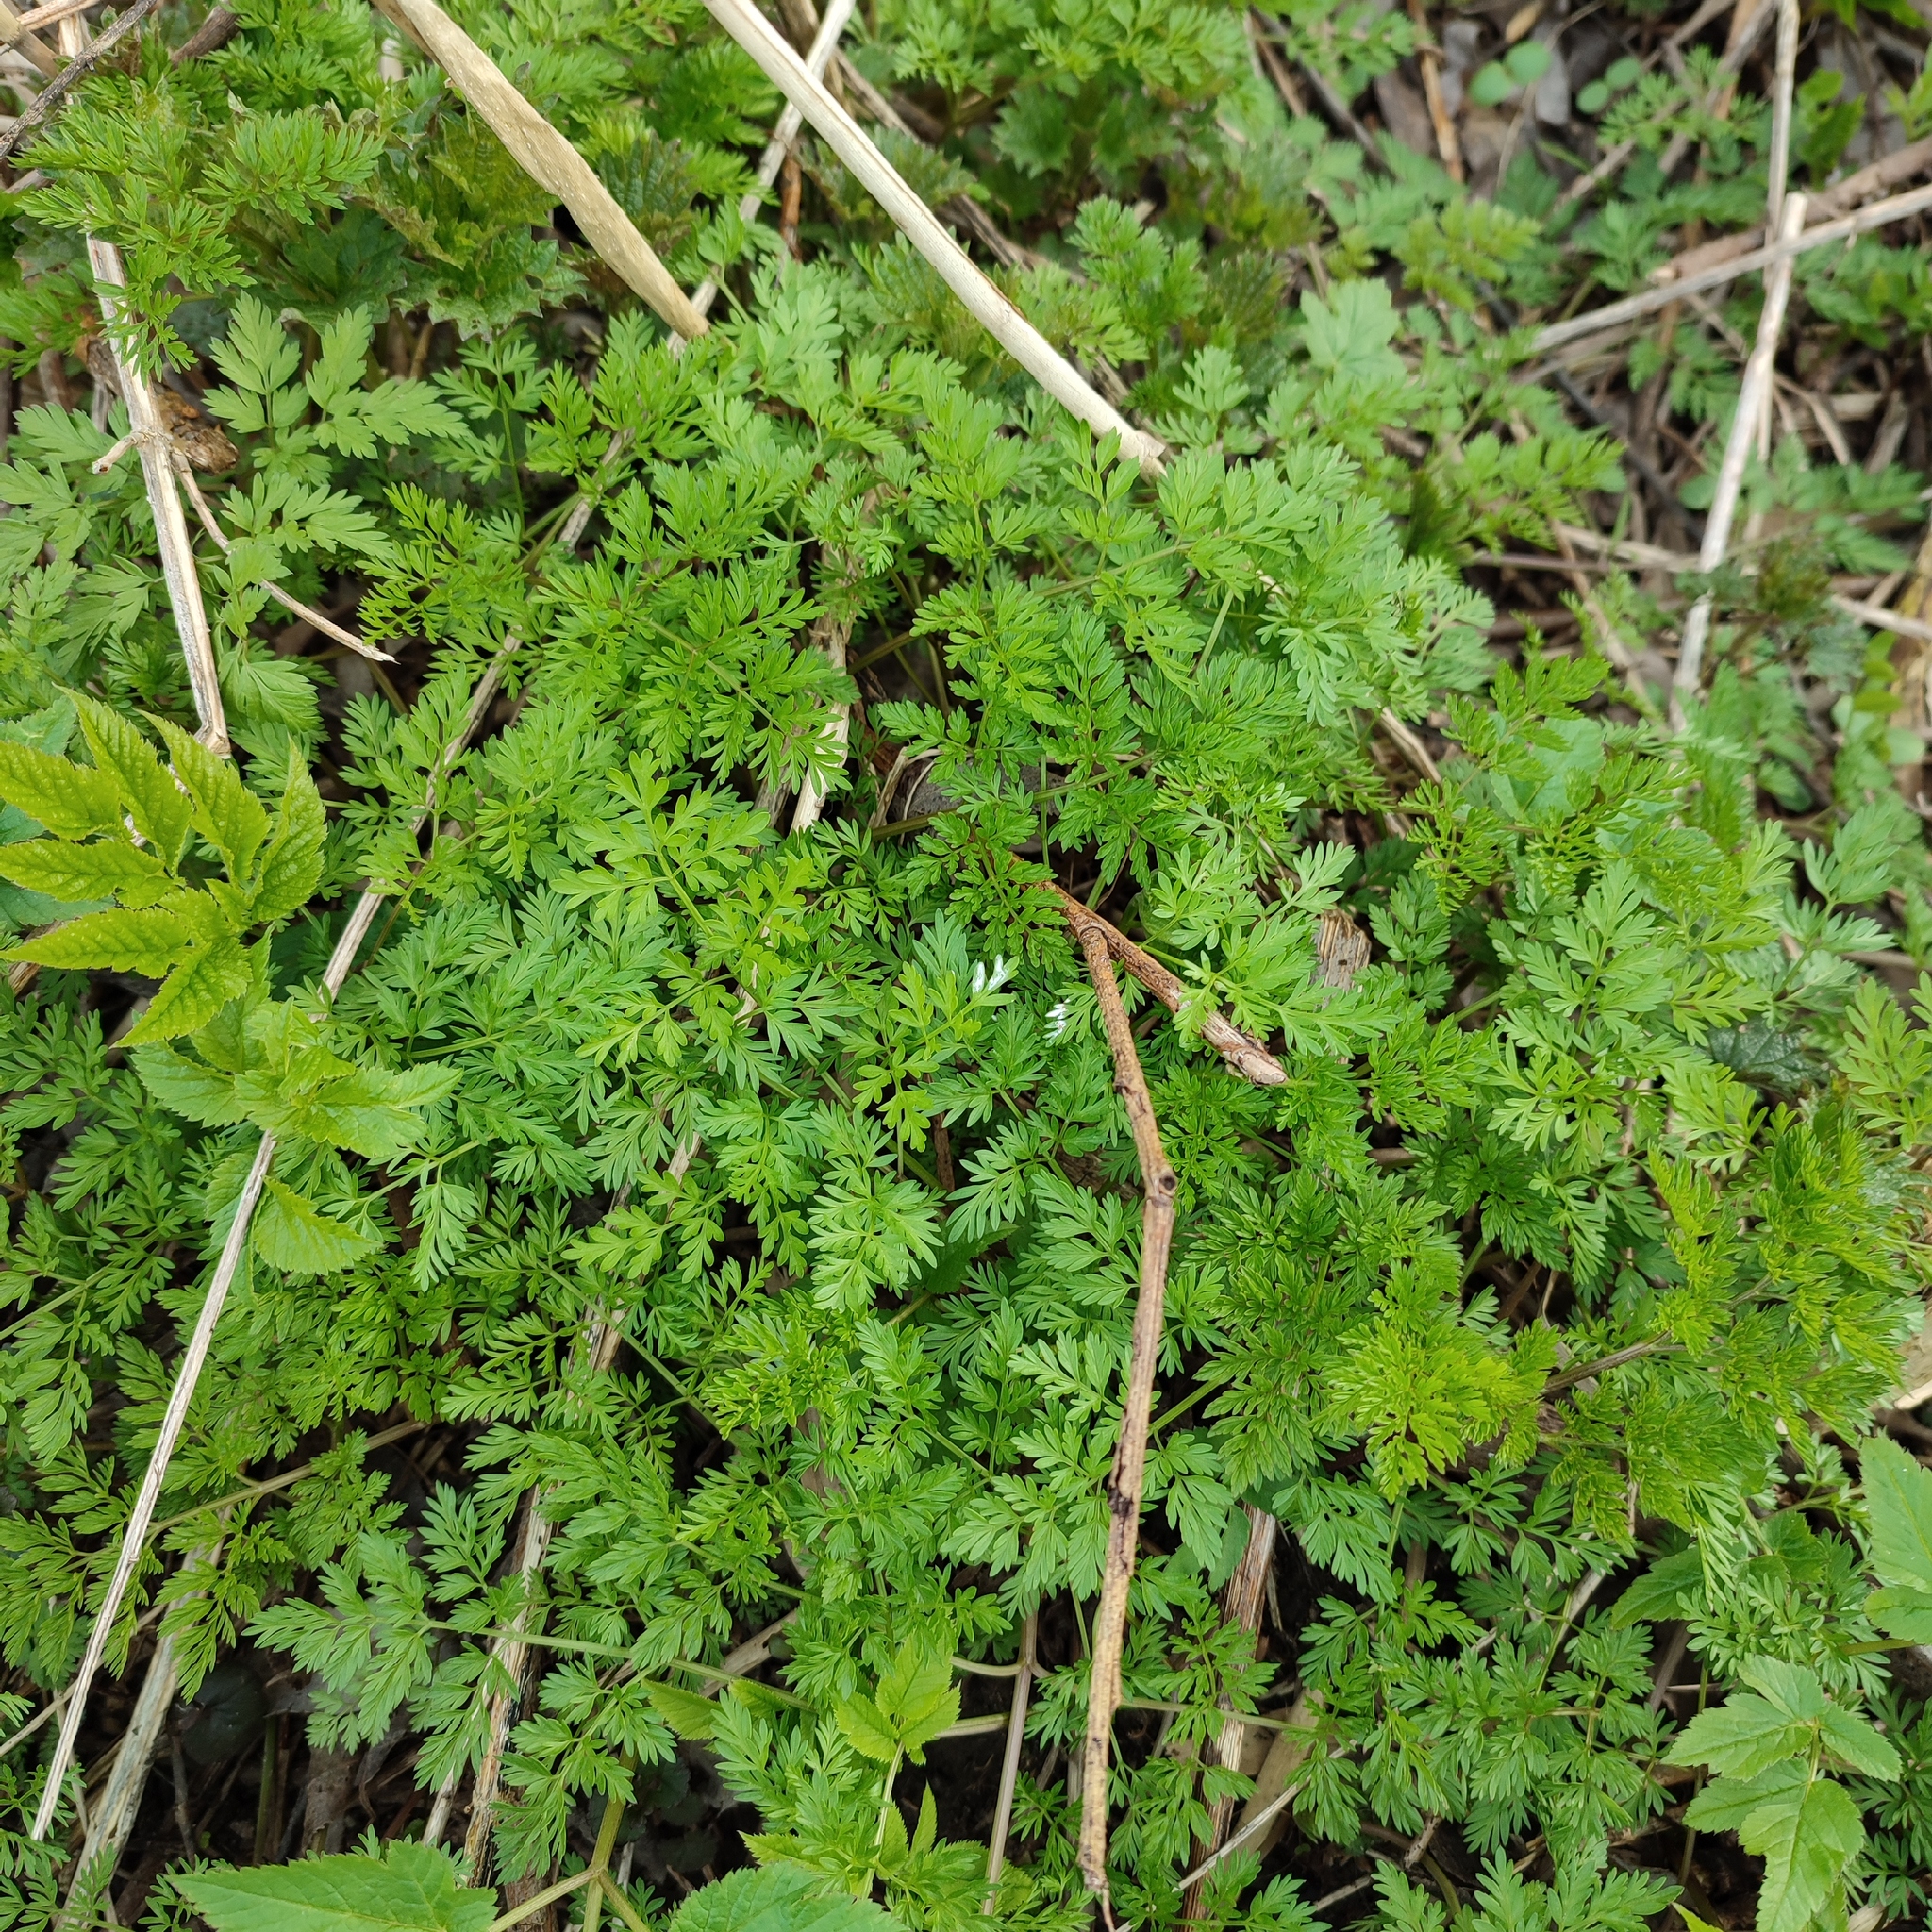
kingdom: Plantae
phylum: Tracheophyta
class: Magnoliopsida
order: Apiales
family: Apiaceae
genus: Anthriscus
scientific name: Anthriscus sylvestris
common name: Cow parsley
